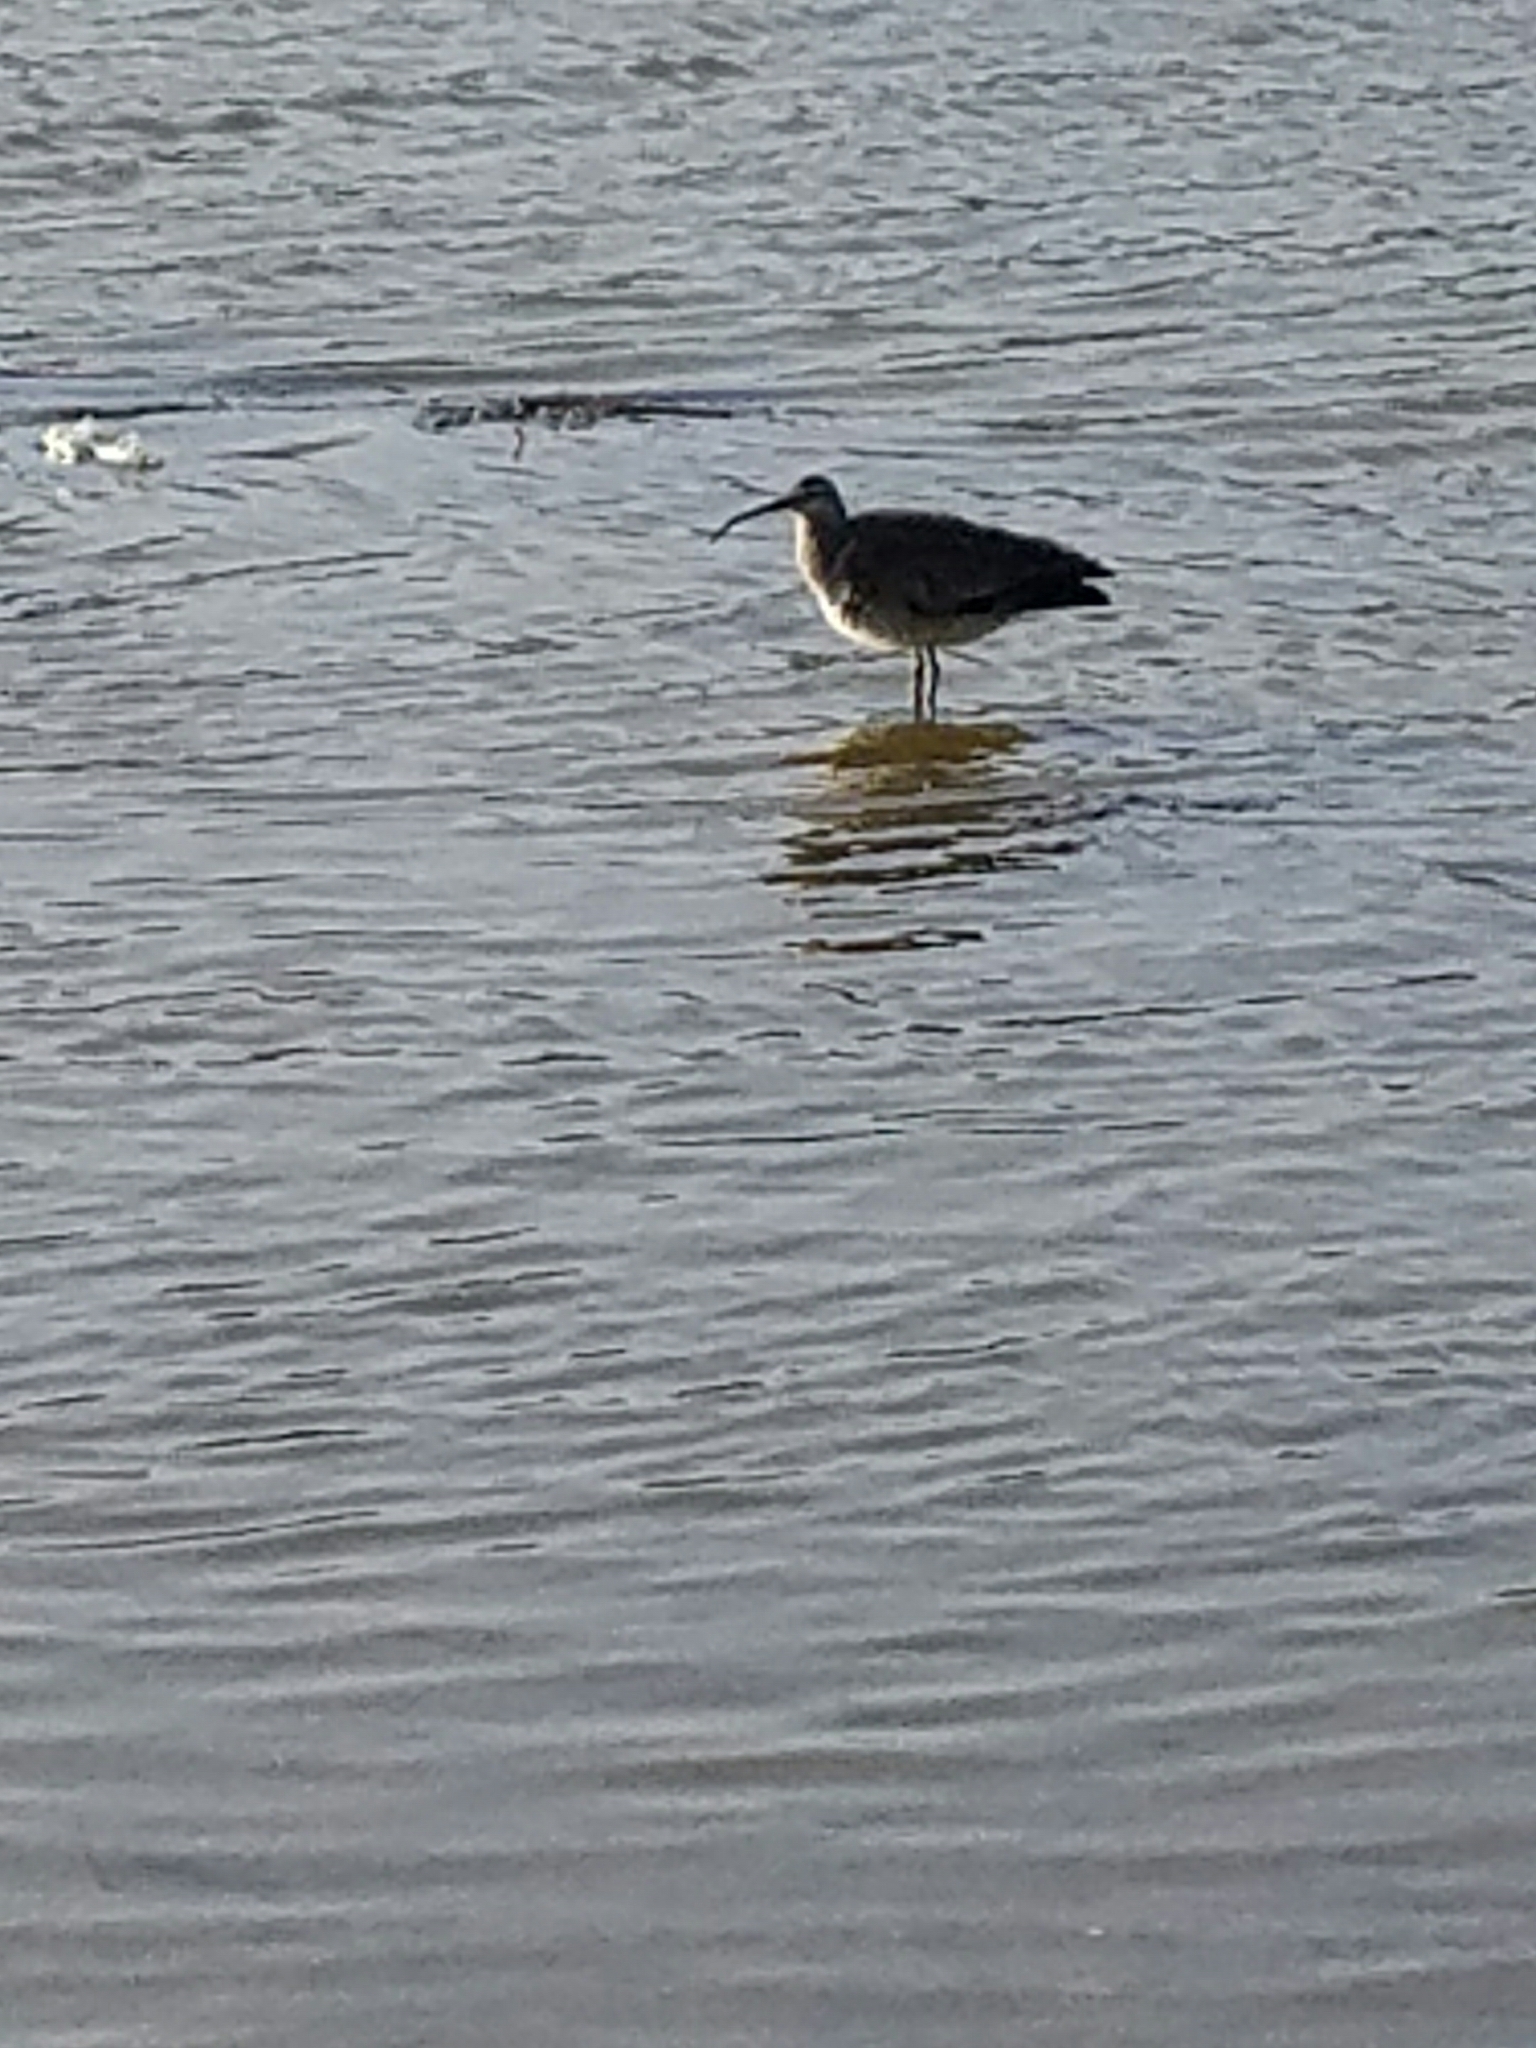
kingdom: Animalia
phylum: Chordata
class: Aves
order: Charadriiformes
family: Scolopacidae
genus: Numenius
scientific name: Numenius phaeopus
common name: Whimbrel
